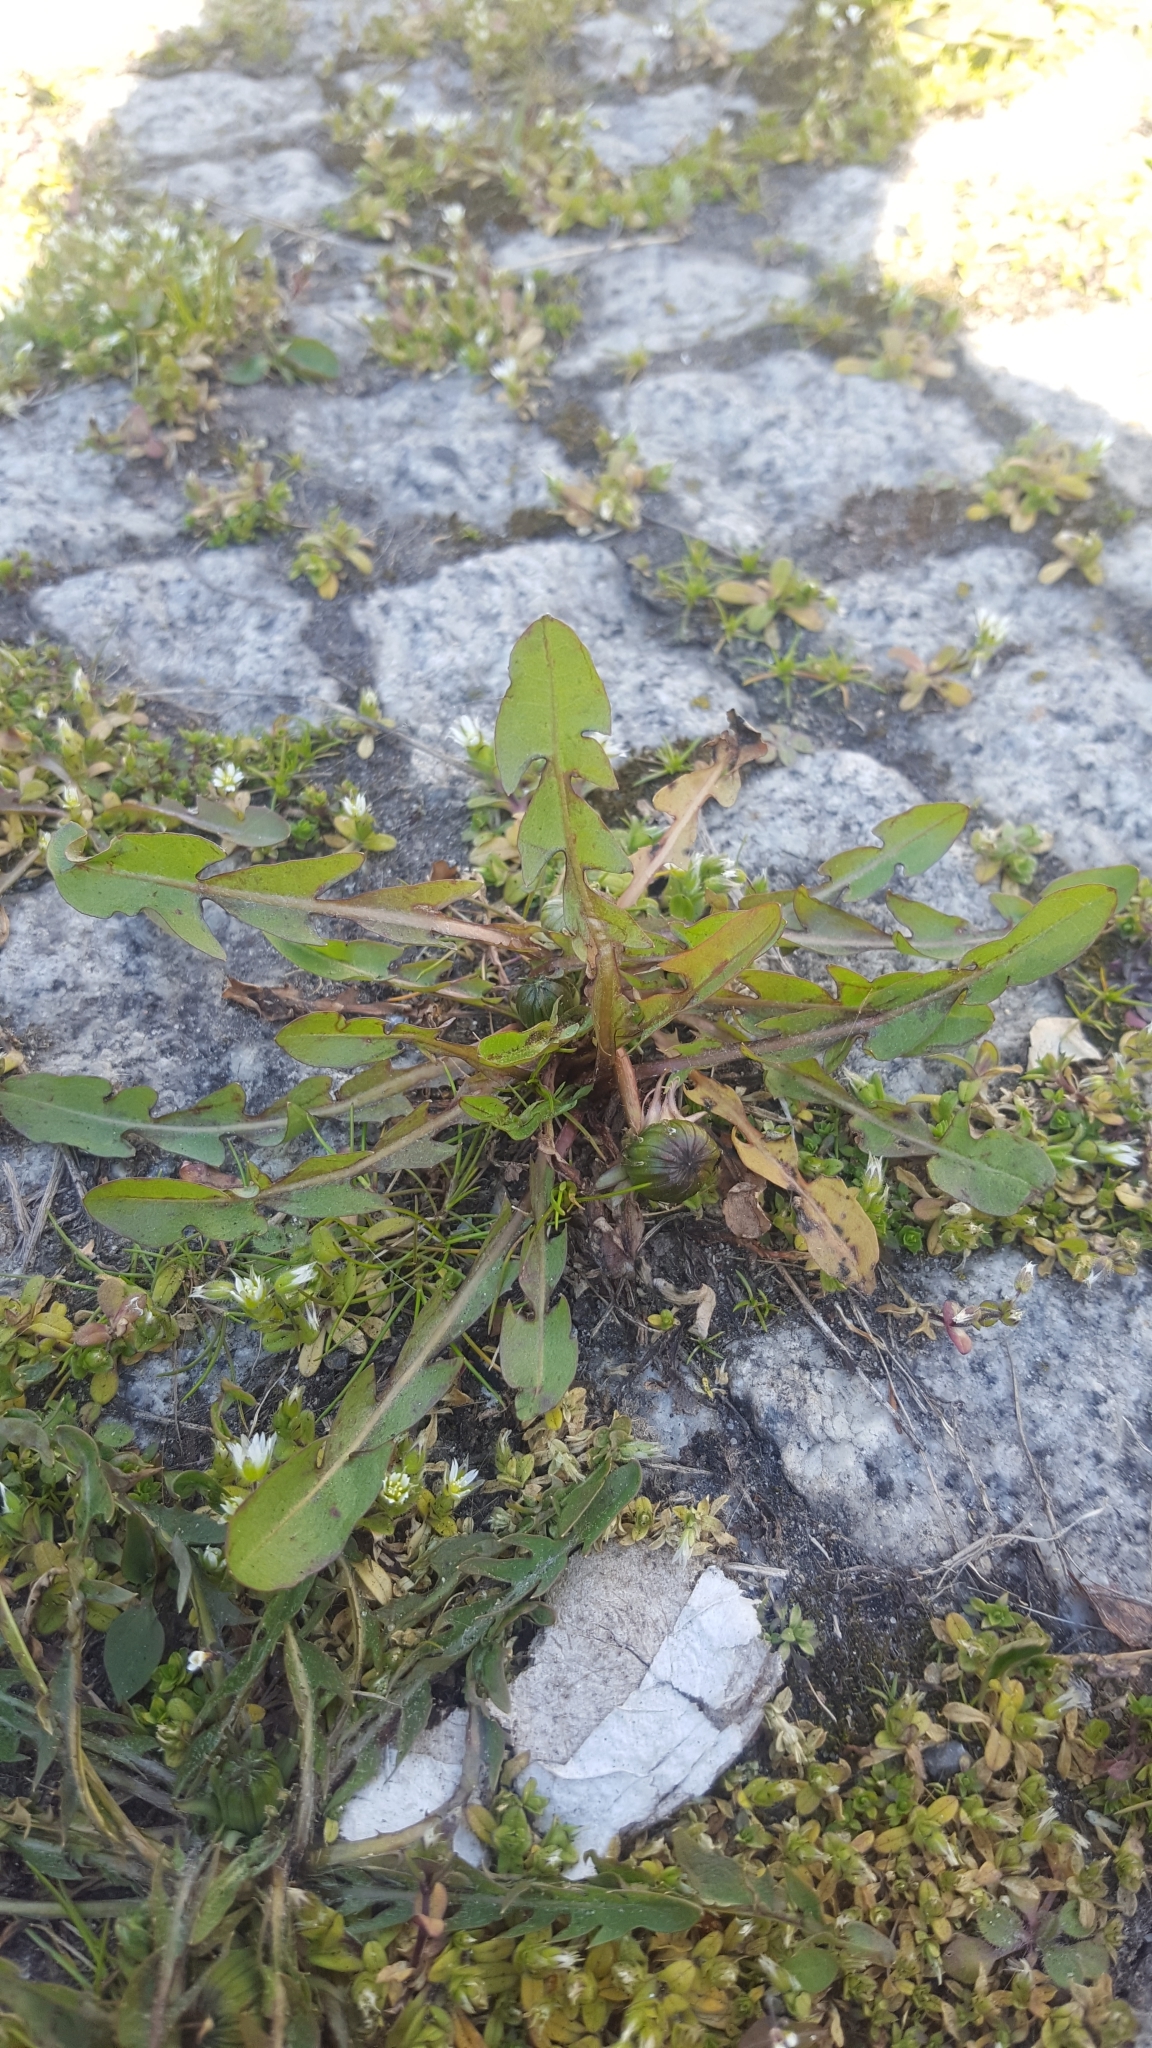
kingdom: Plantae
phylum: Tracheophyta
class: Magnoliopsida
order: Asterales
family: Asteraceae
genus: Taraxacum
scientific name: Taraxacum officinale
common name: Common dandelion
